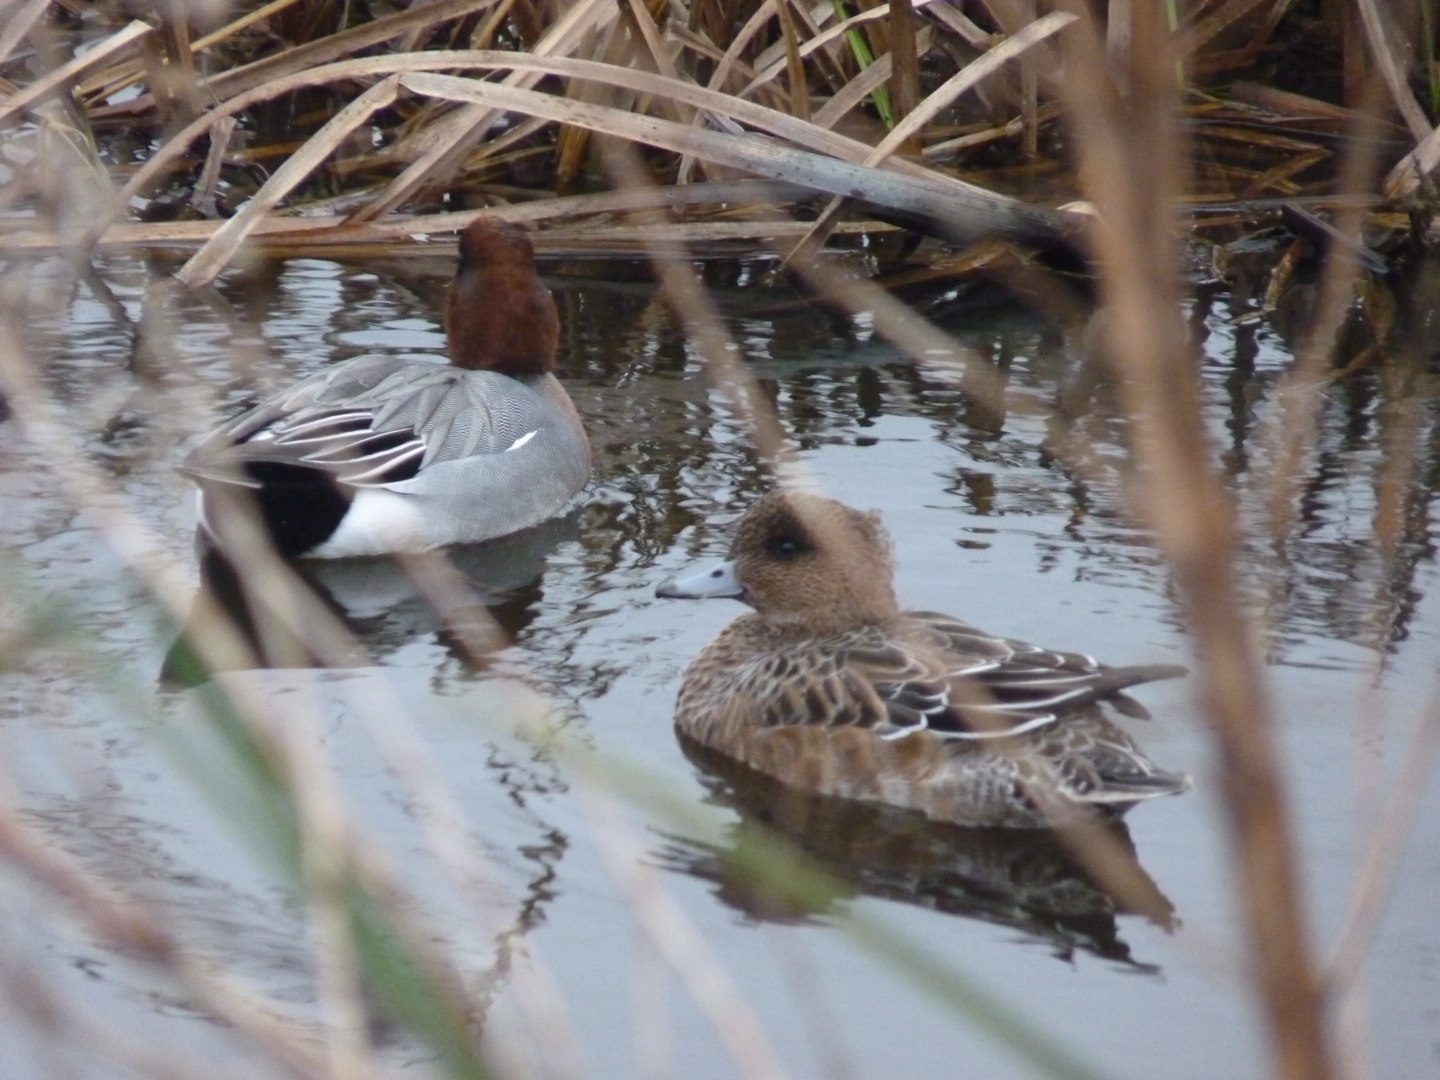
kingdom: Animalia
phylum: Chordata
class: Aves
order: Anseriformes
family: Anatidae
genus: Mareca
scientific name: Mareca penelope
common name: Eurasian wigeon
